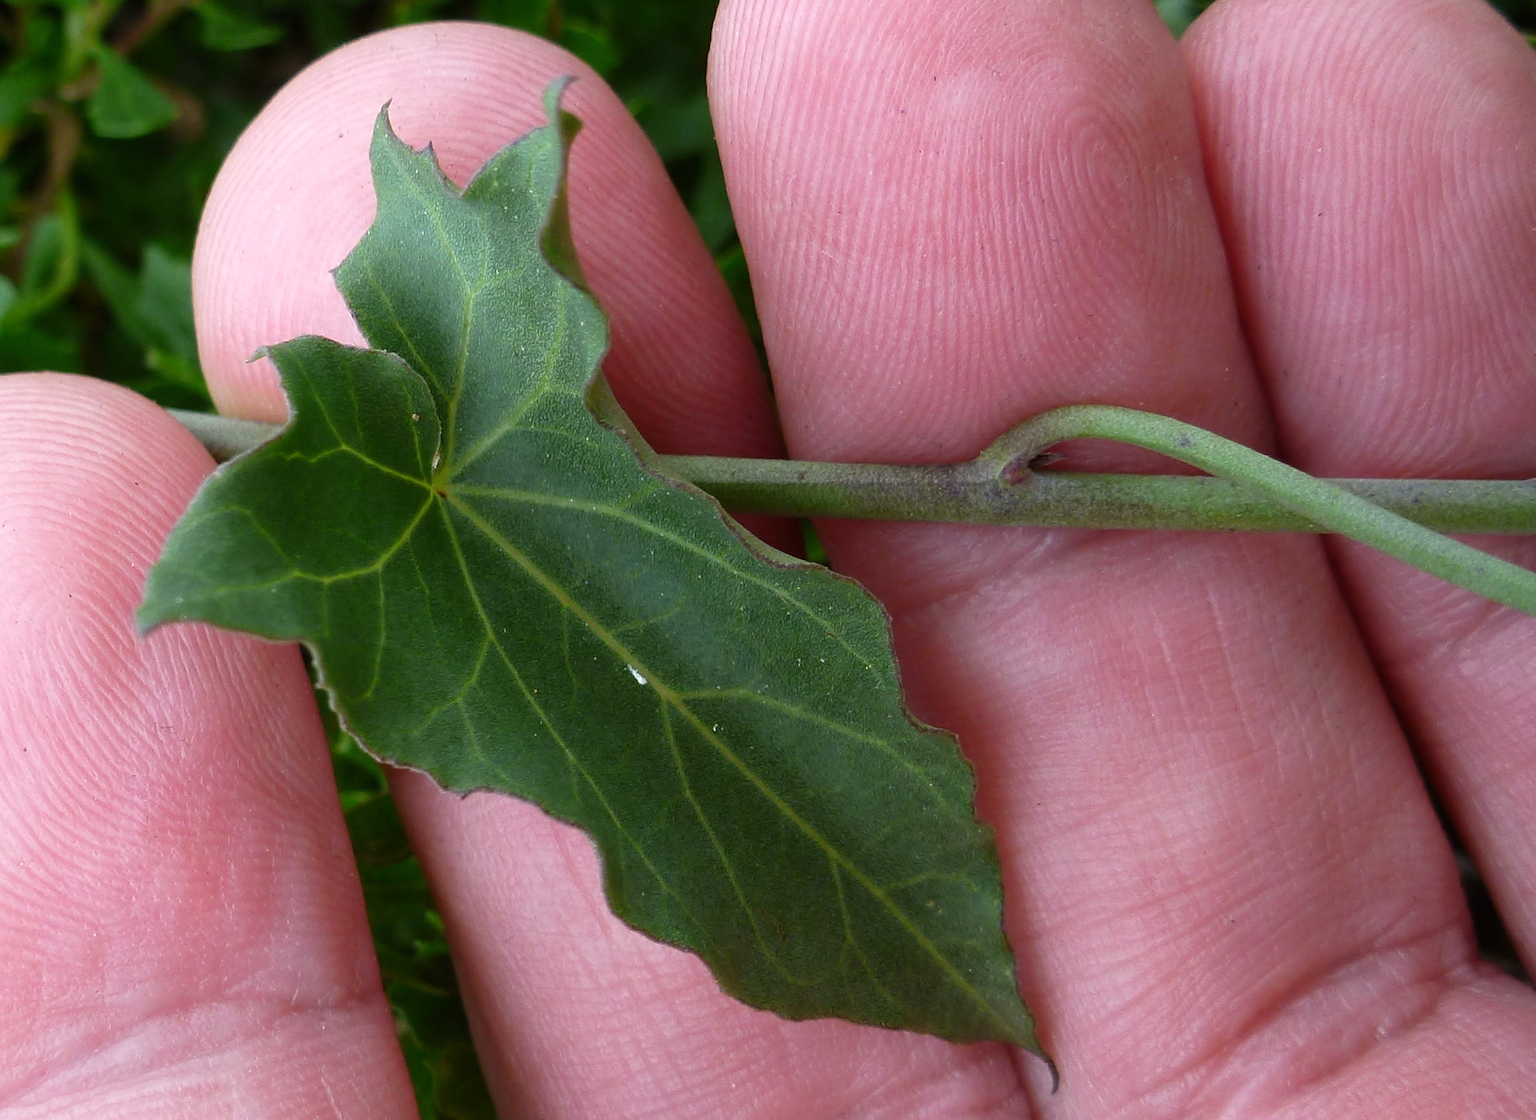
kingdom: Plantae
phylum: Tracheophyta
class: Magnoliopsida
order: Solanales
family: Convolvulaceae
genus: Calystegia
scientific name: Calystegia purpurata
